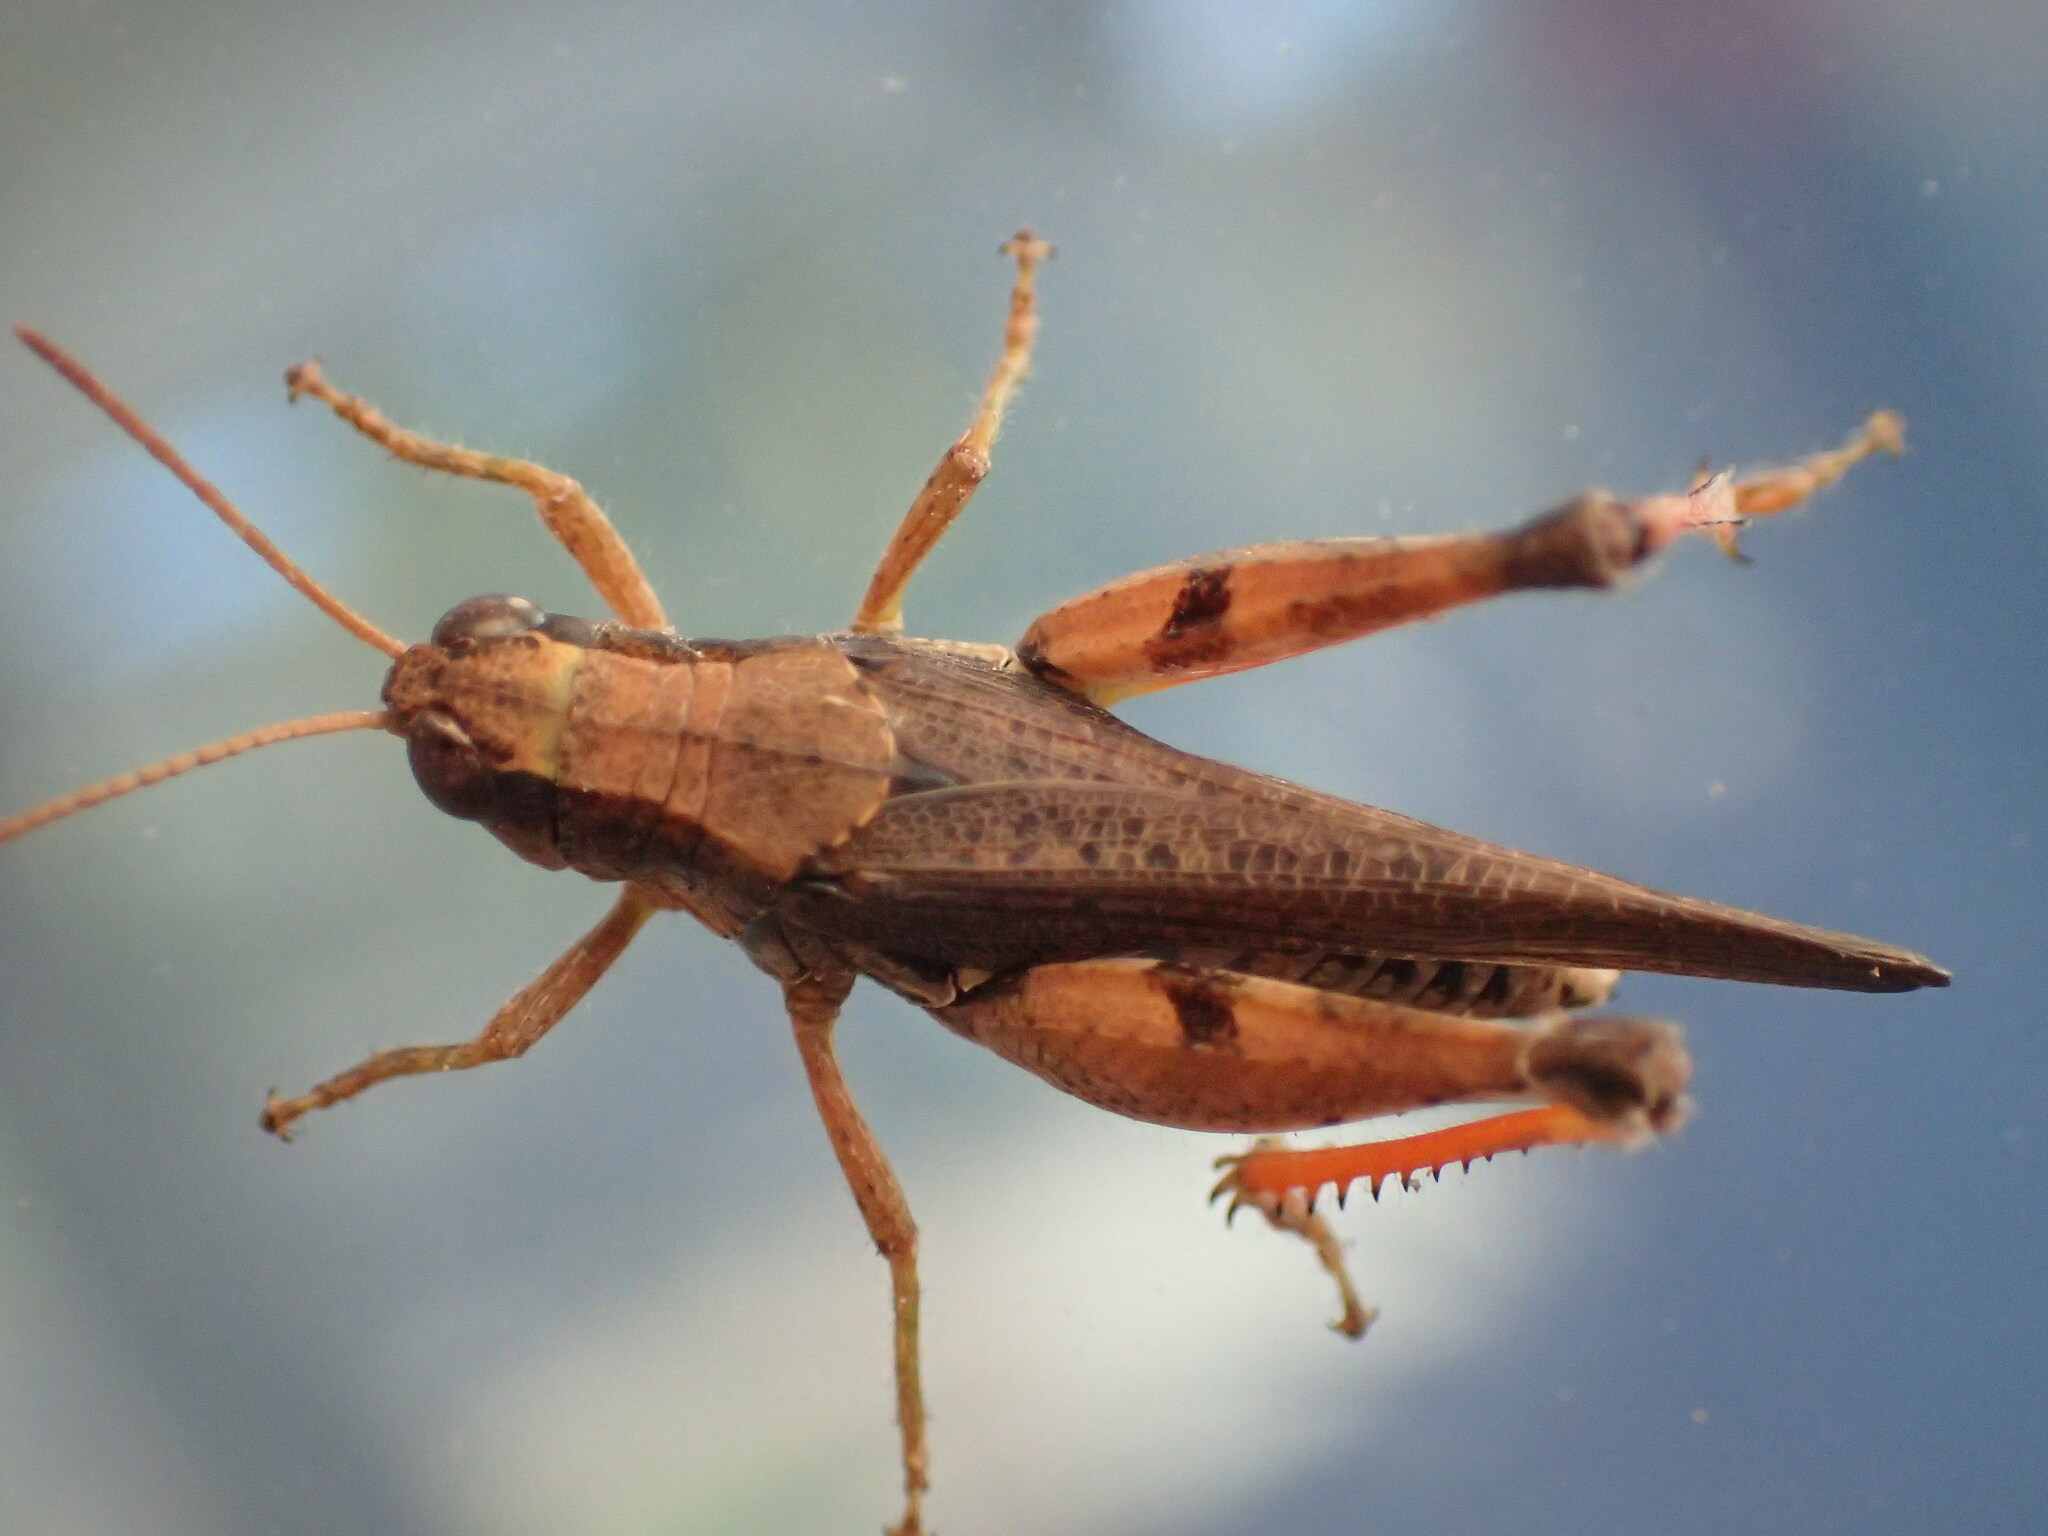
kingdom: Animalia
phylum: Arthropoda
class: Insecta
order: Orthoptera
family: Acrididae
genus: Phaulacridium
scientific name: Phaulacridium vittatum
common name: Wingless grasshopper
